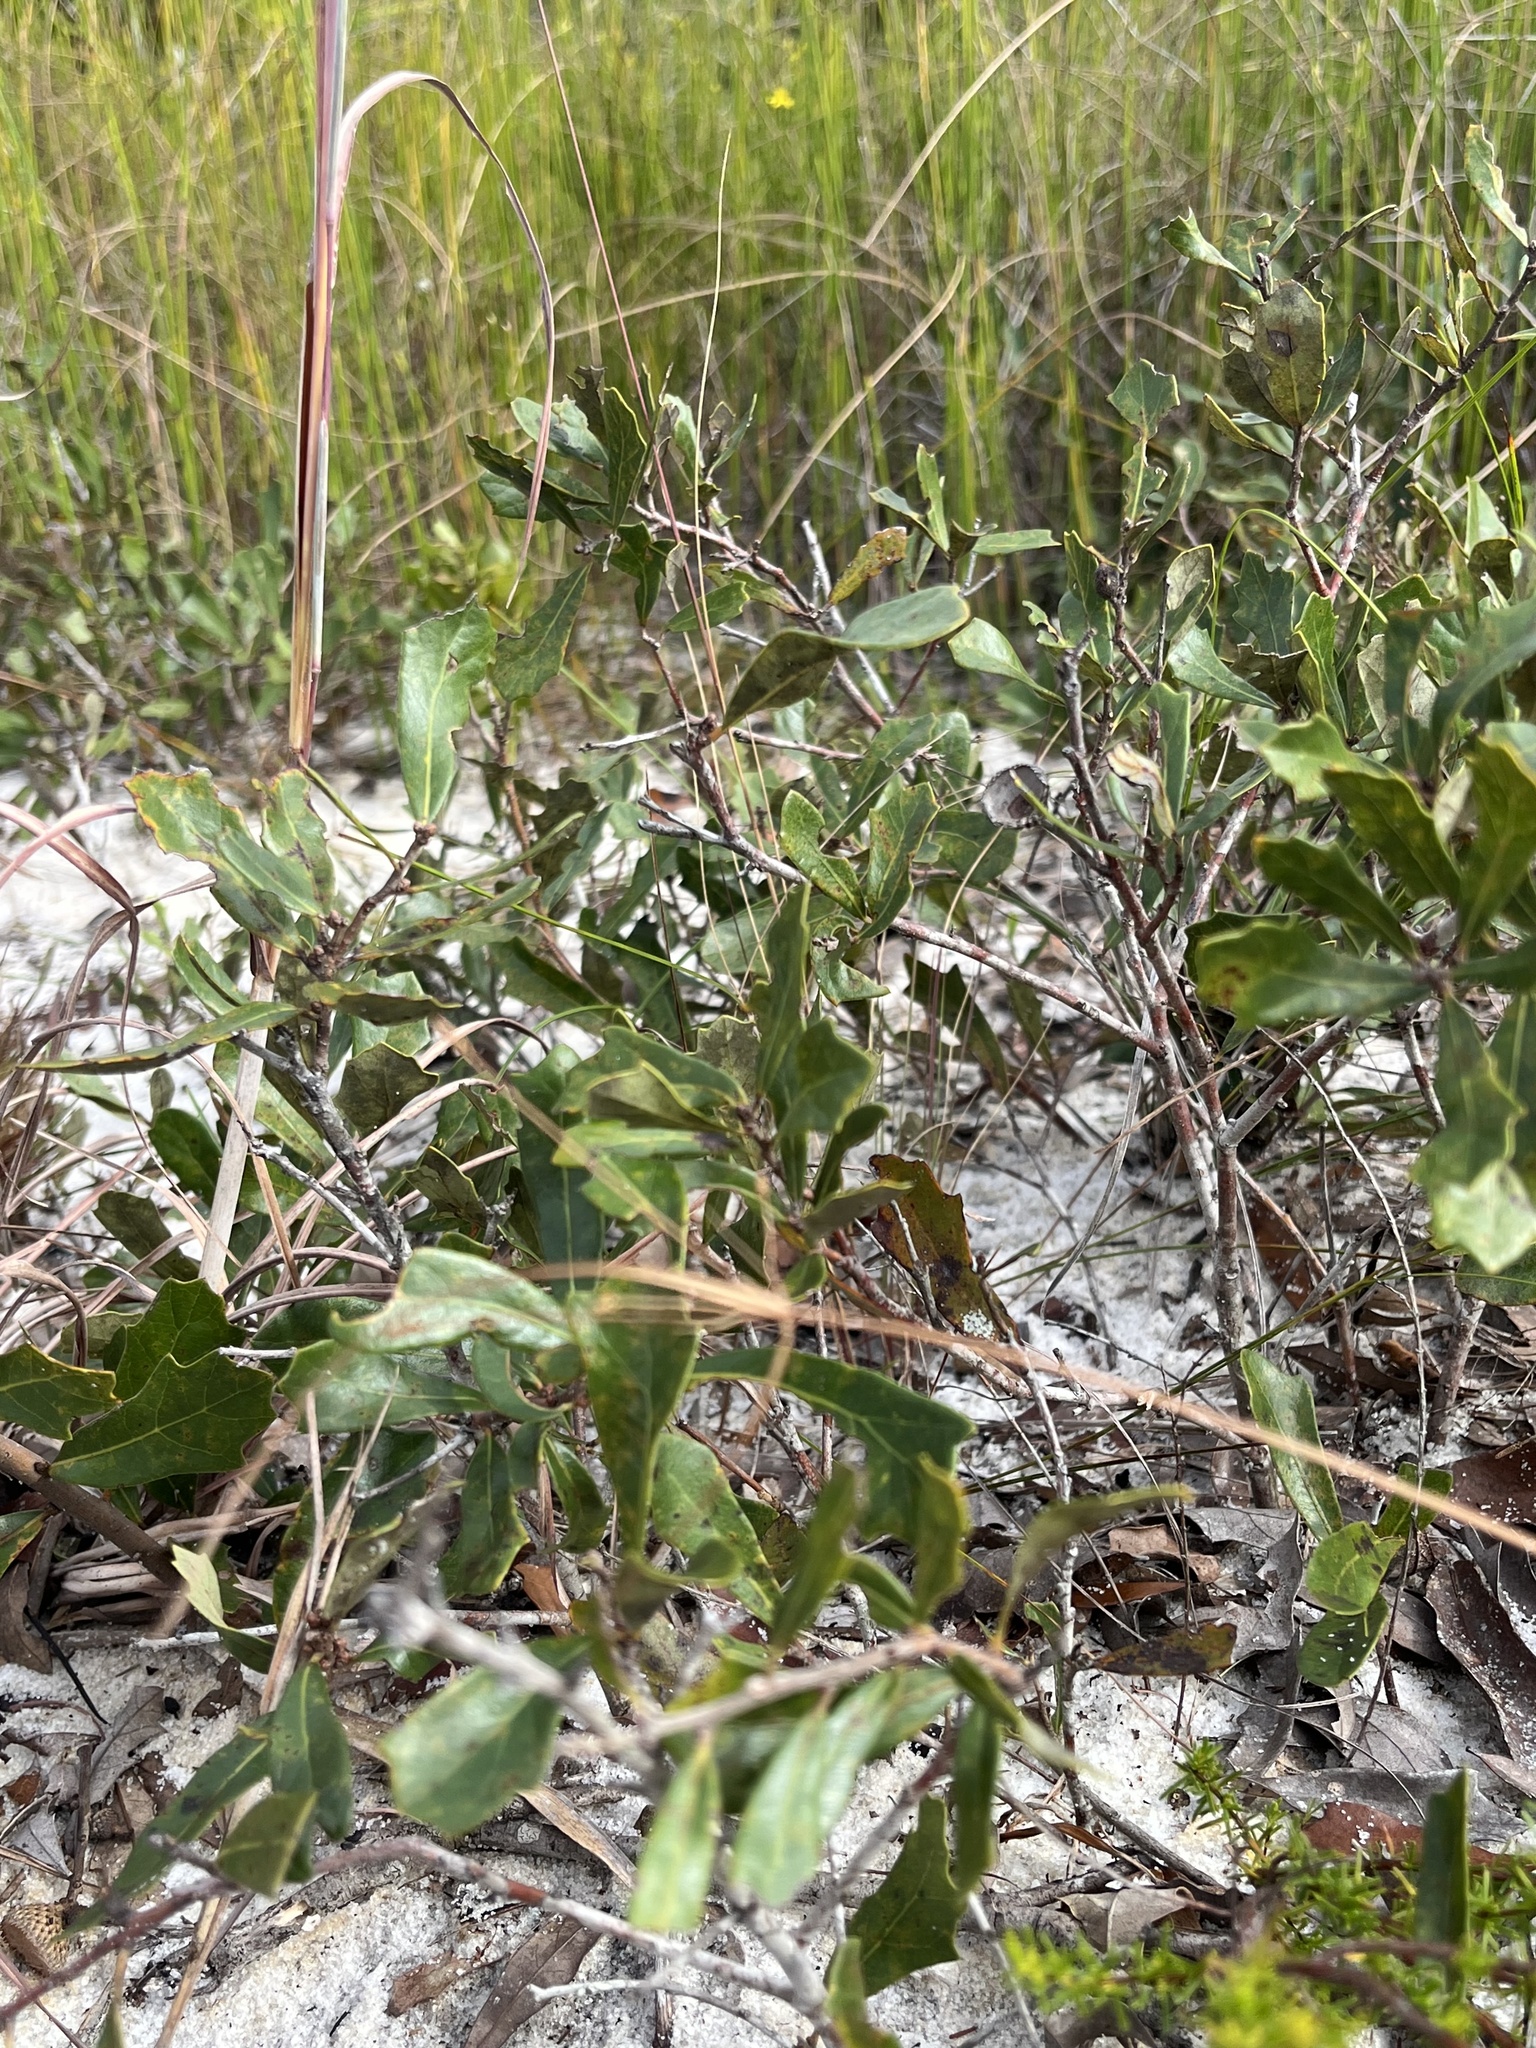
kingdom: Plantae
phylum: Tracheophyta
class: Magnoliopsida
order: Fagales
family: Fagaceae
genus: Quercus
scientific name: Quercus minima
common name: Dwarf live oak
